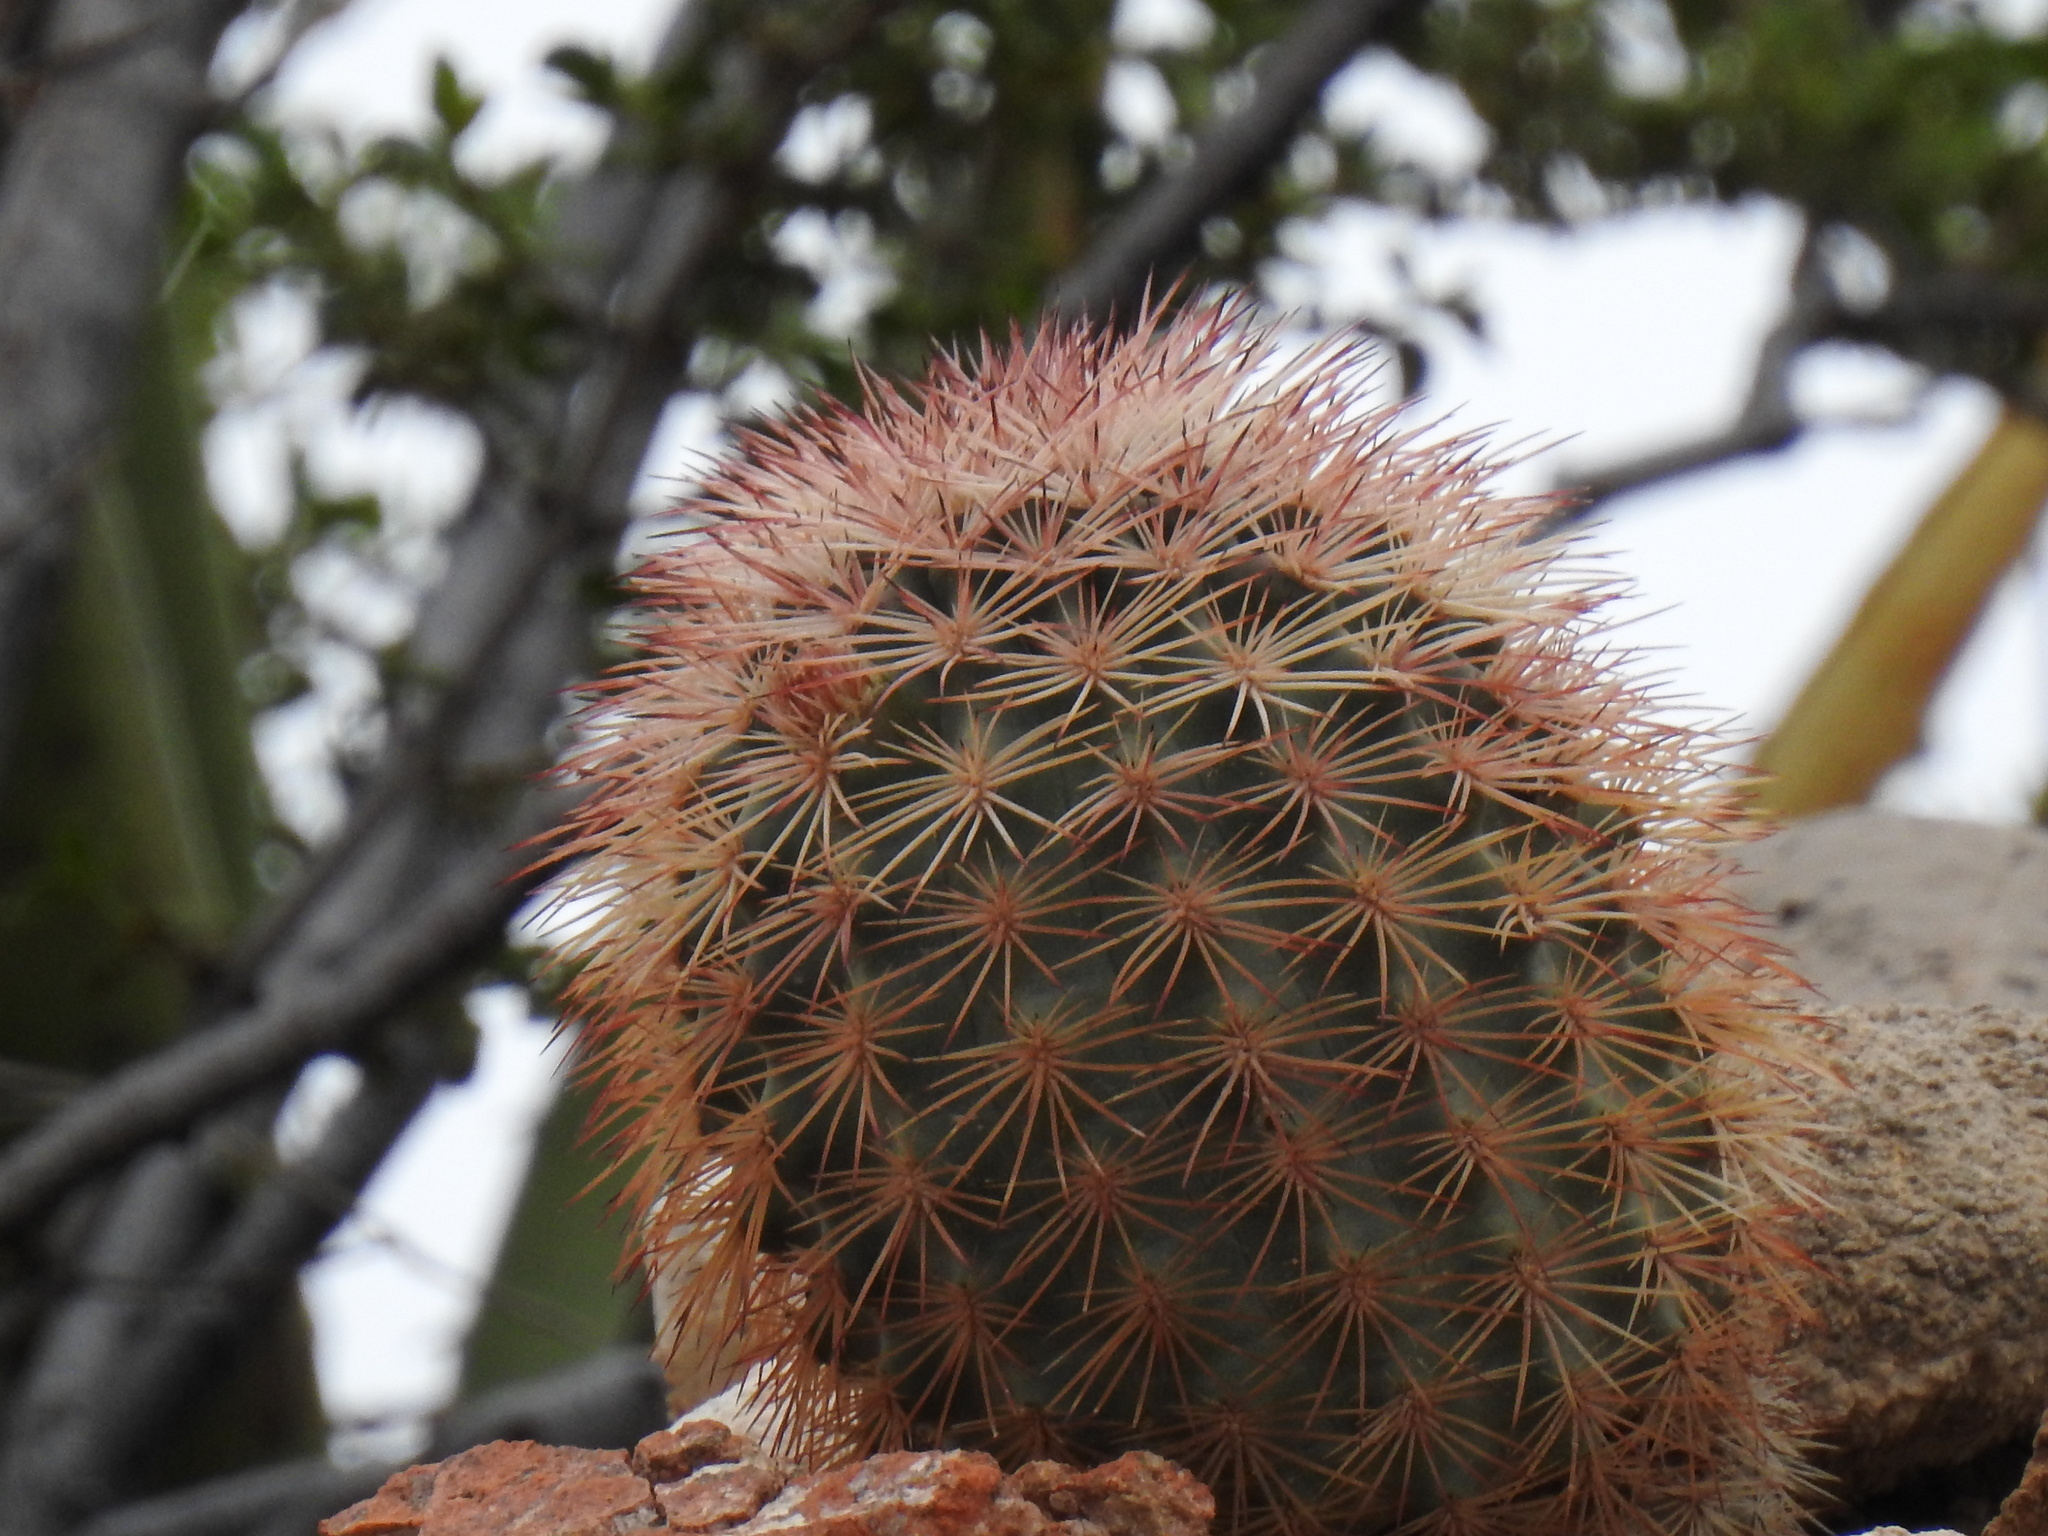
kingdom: Plantae
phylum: Tracheophyta
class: Magnoliopsida
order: Caryophyllales
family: Cactaceae
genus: Echinocereus
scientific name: Echinocereus dasyacanthus
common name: Spiny hedgehog cactus
